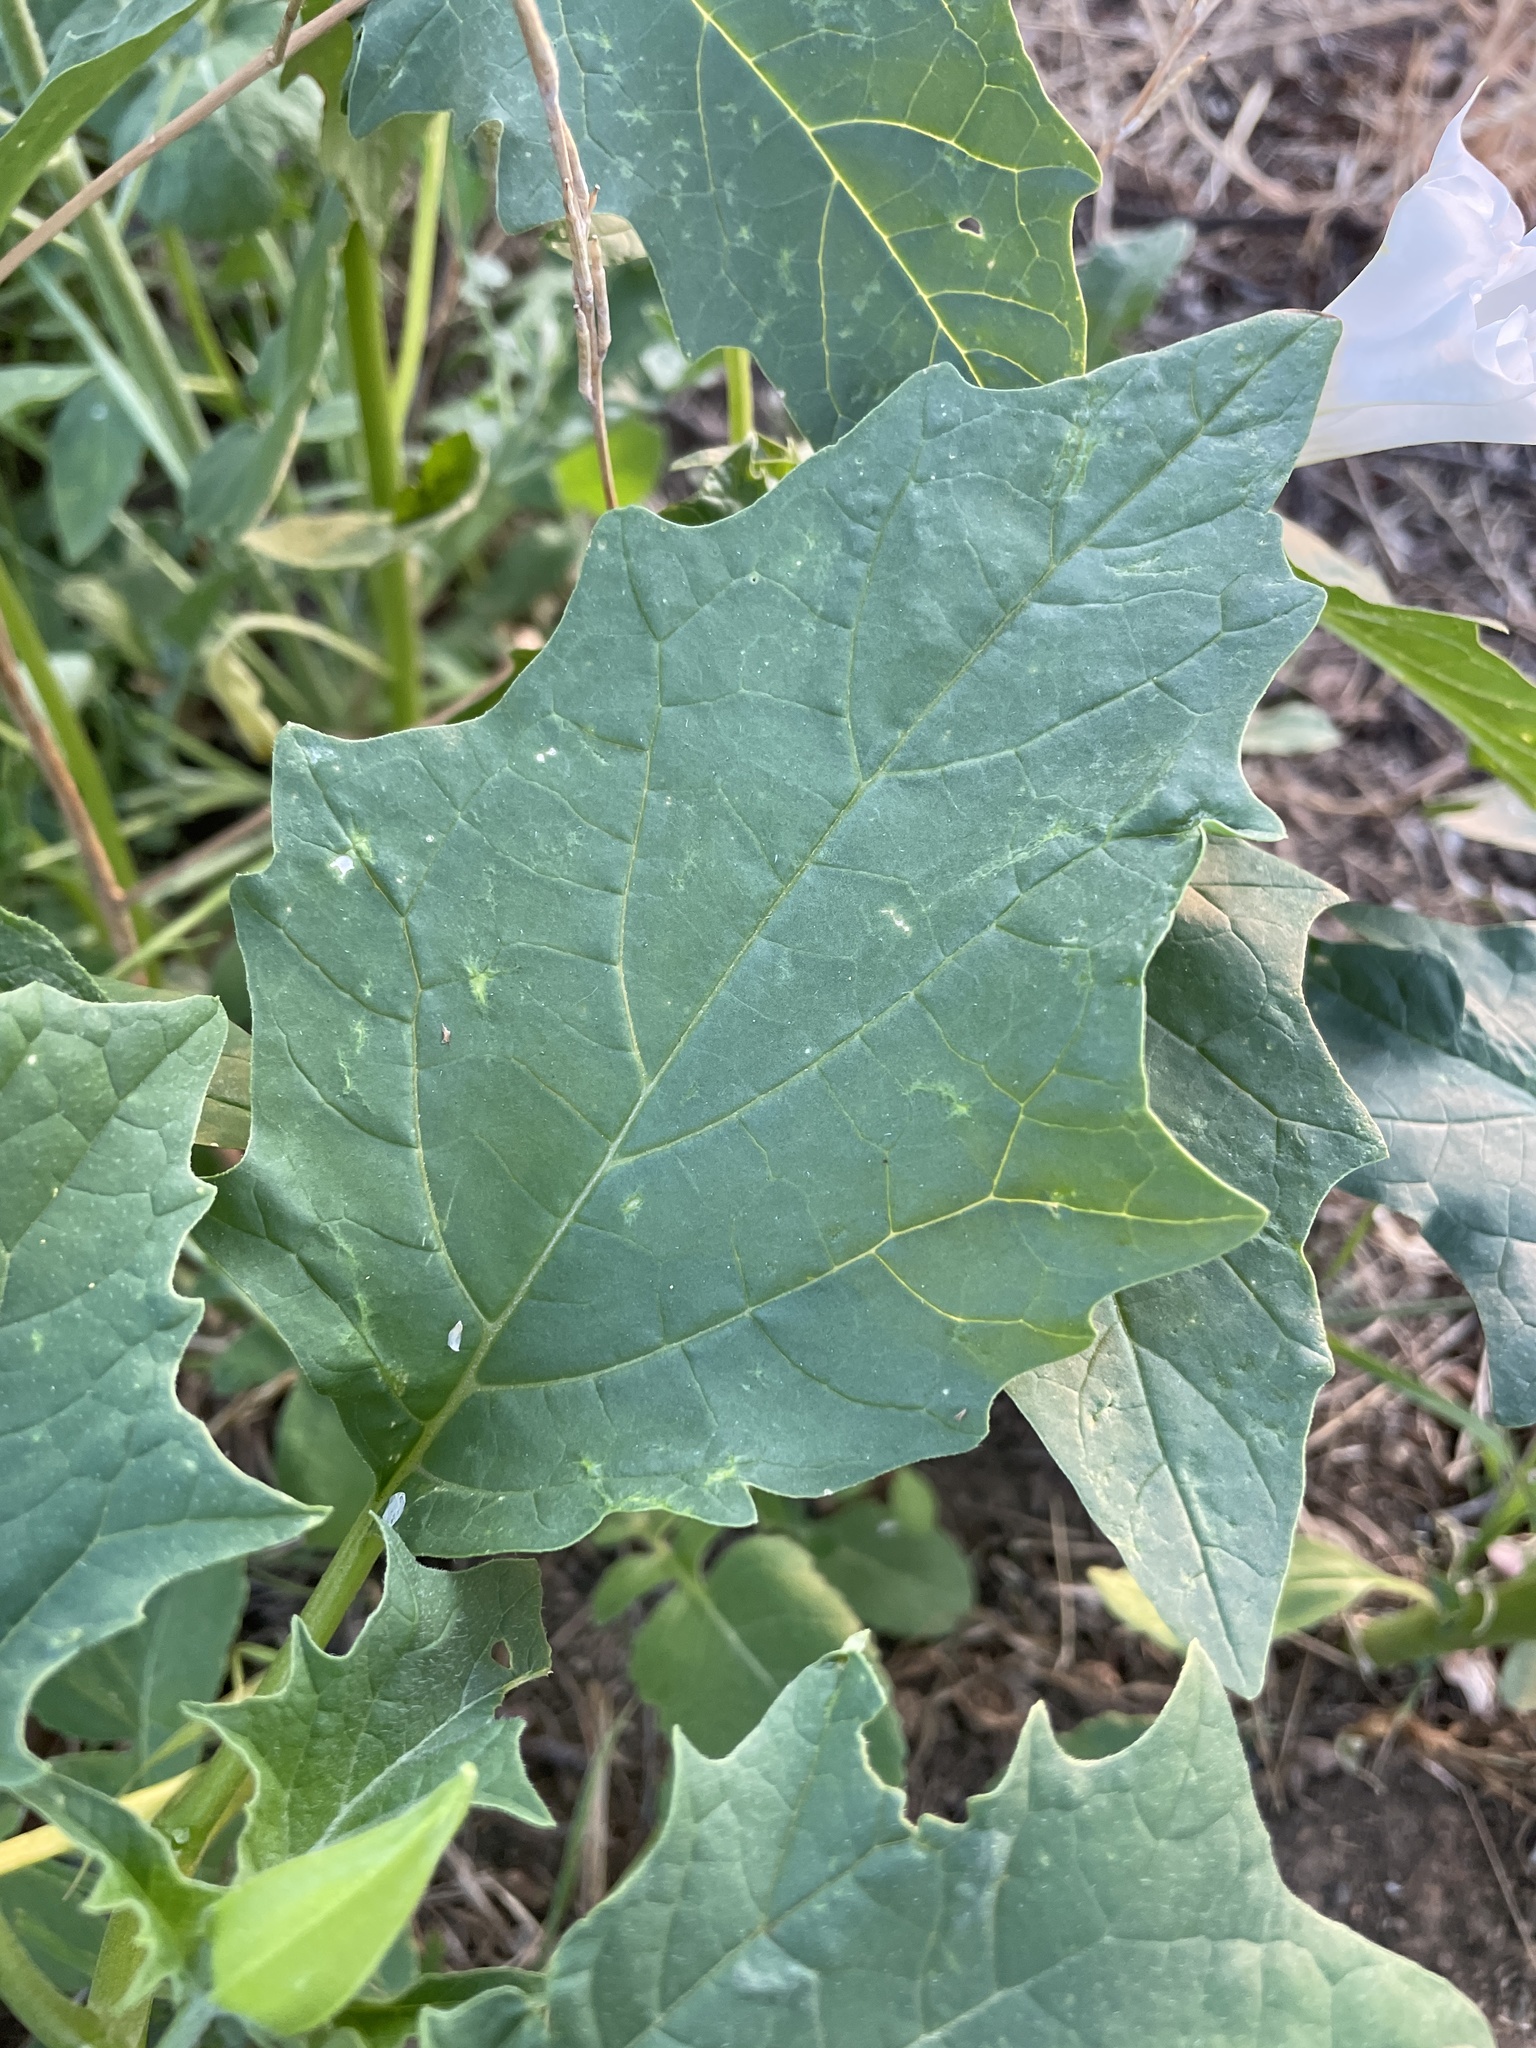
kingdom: Plantae
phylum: Tracheophyta
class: Magnoliopsida
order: Solanales
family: Solanaceae
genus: Datura
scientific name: Datura stramonium
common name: Thorn-apple
